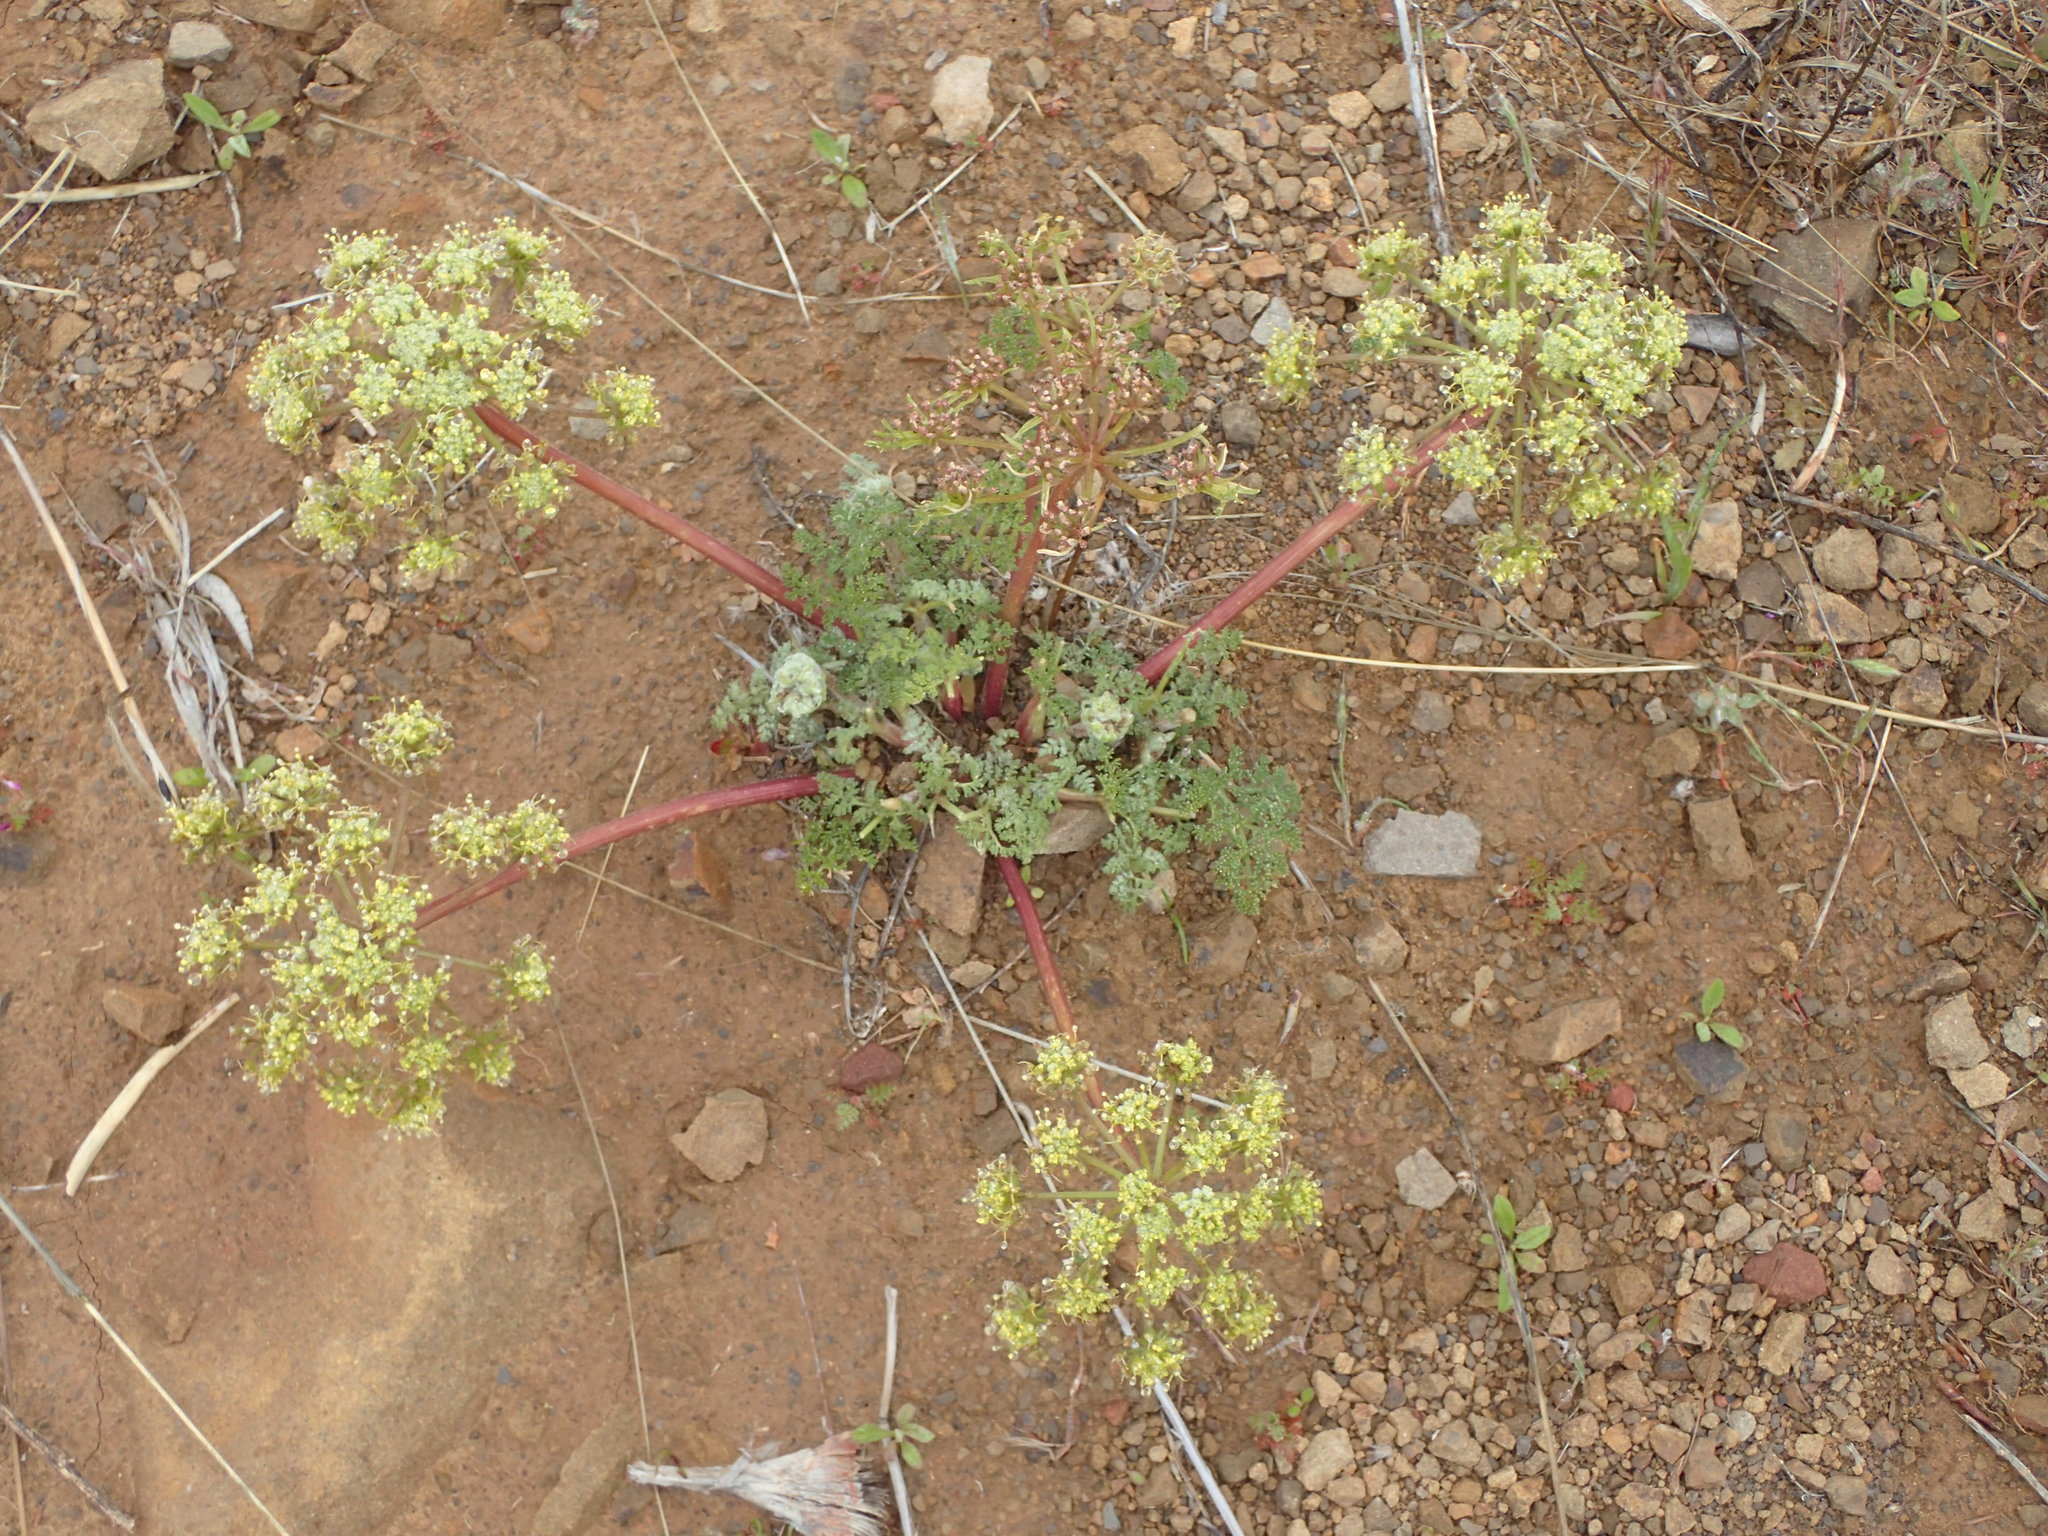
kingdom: Plantae
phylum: Tracheophyta
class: Magnoliopsida
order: Apiales
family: Apiaceae
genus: Lomatium
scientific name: Lomatium dasycarpum
